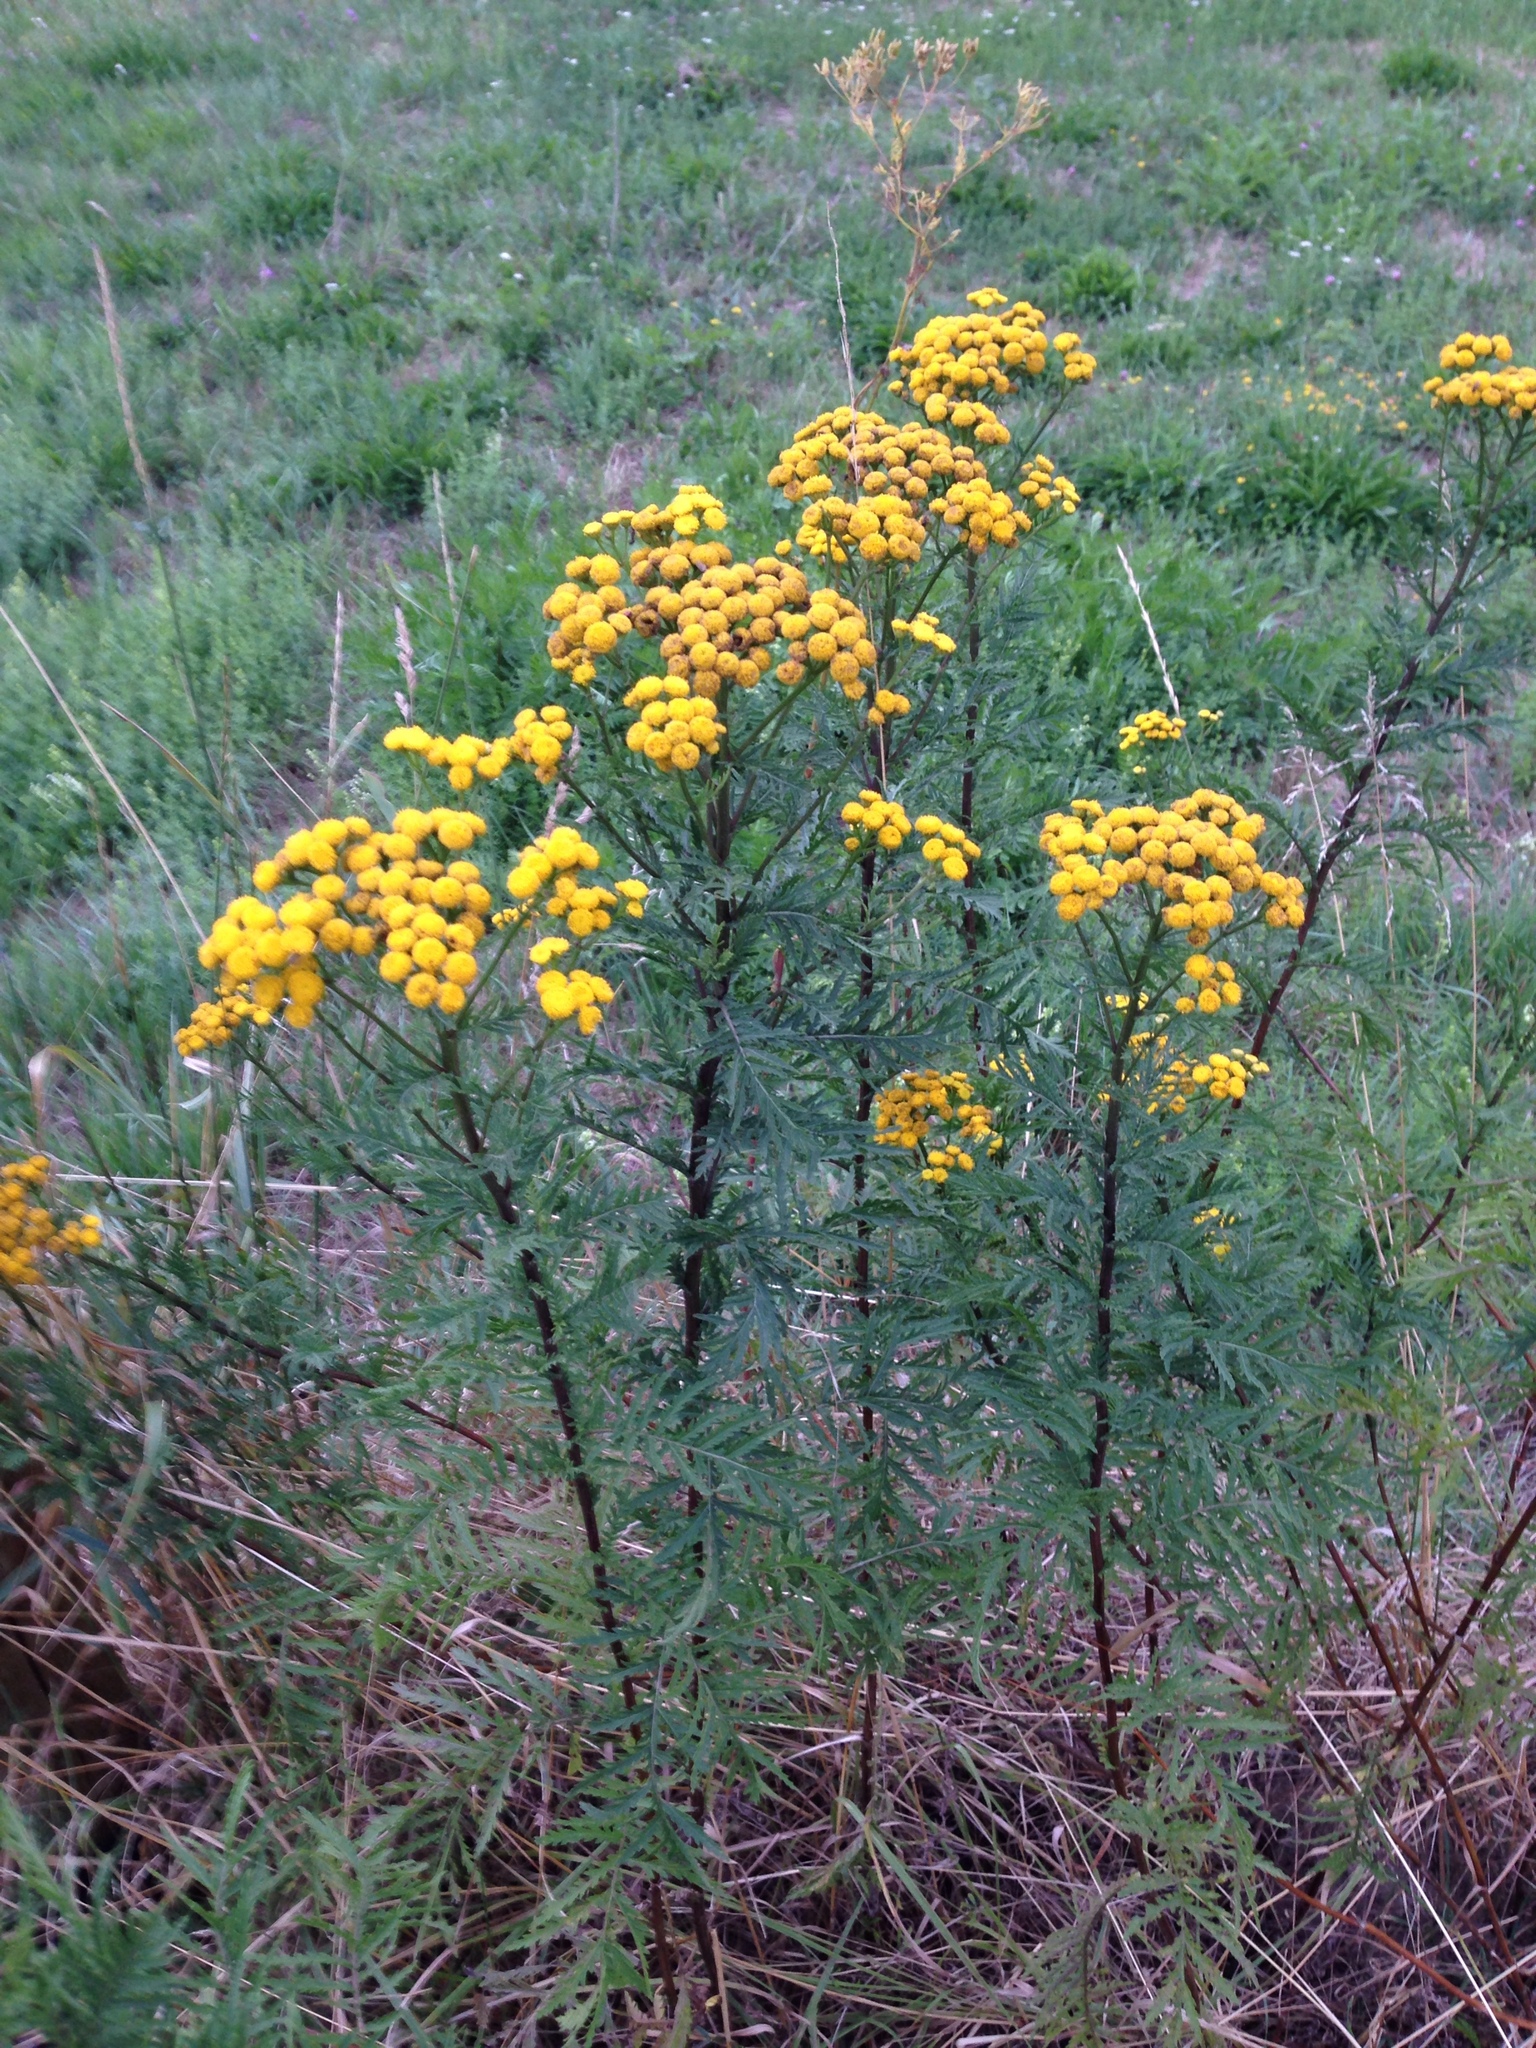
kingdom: Plantae
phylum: Tracheophyta
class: Magnoliopsida
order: Asterales
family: Asteraceae
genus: Tanacetum
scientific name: Tanacetum vulgare
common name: Common tansy
